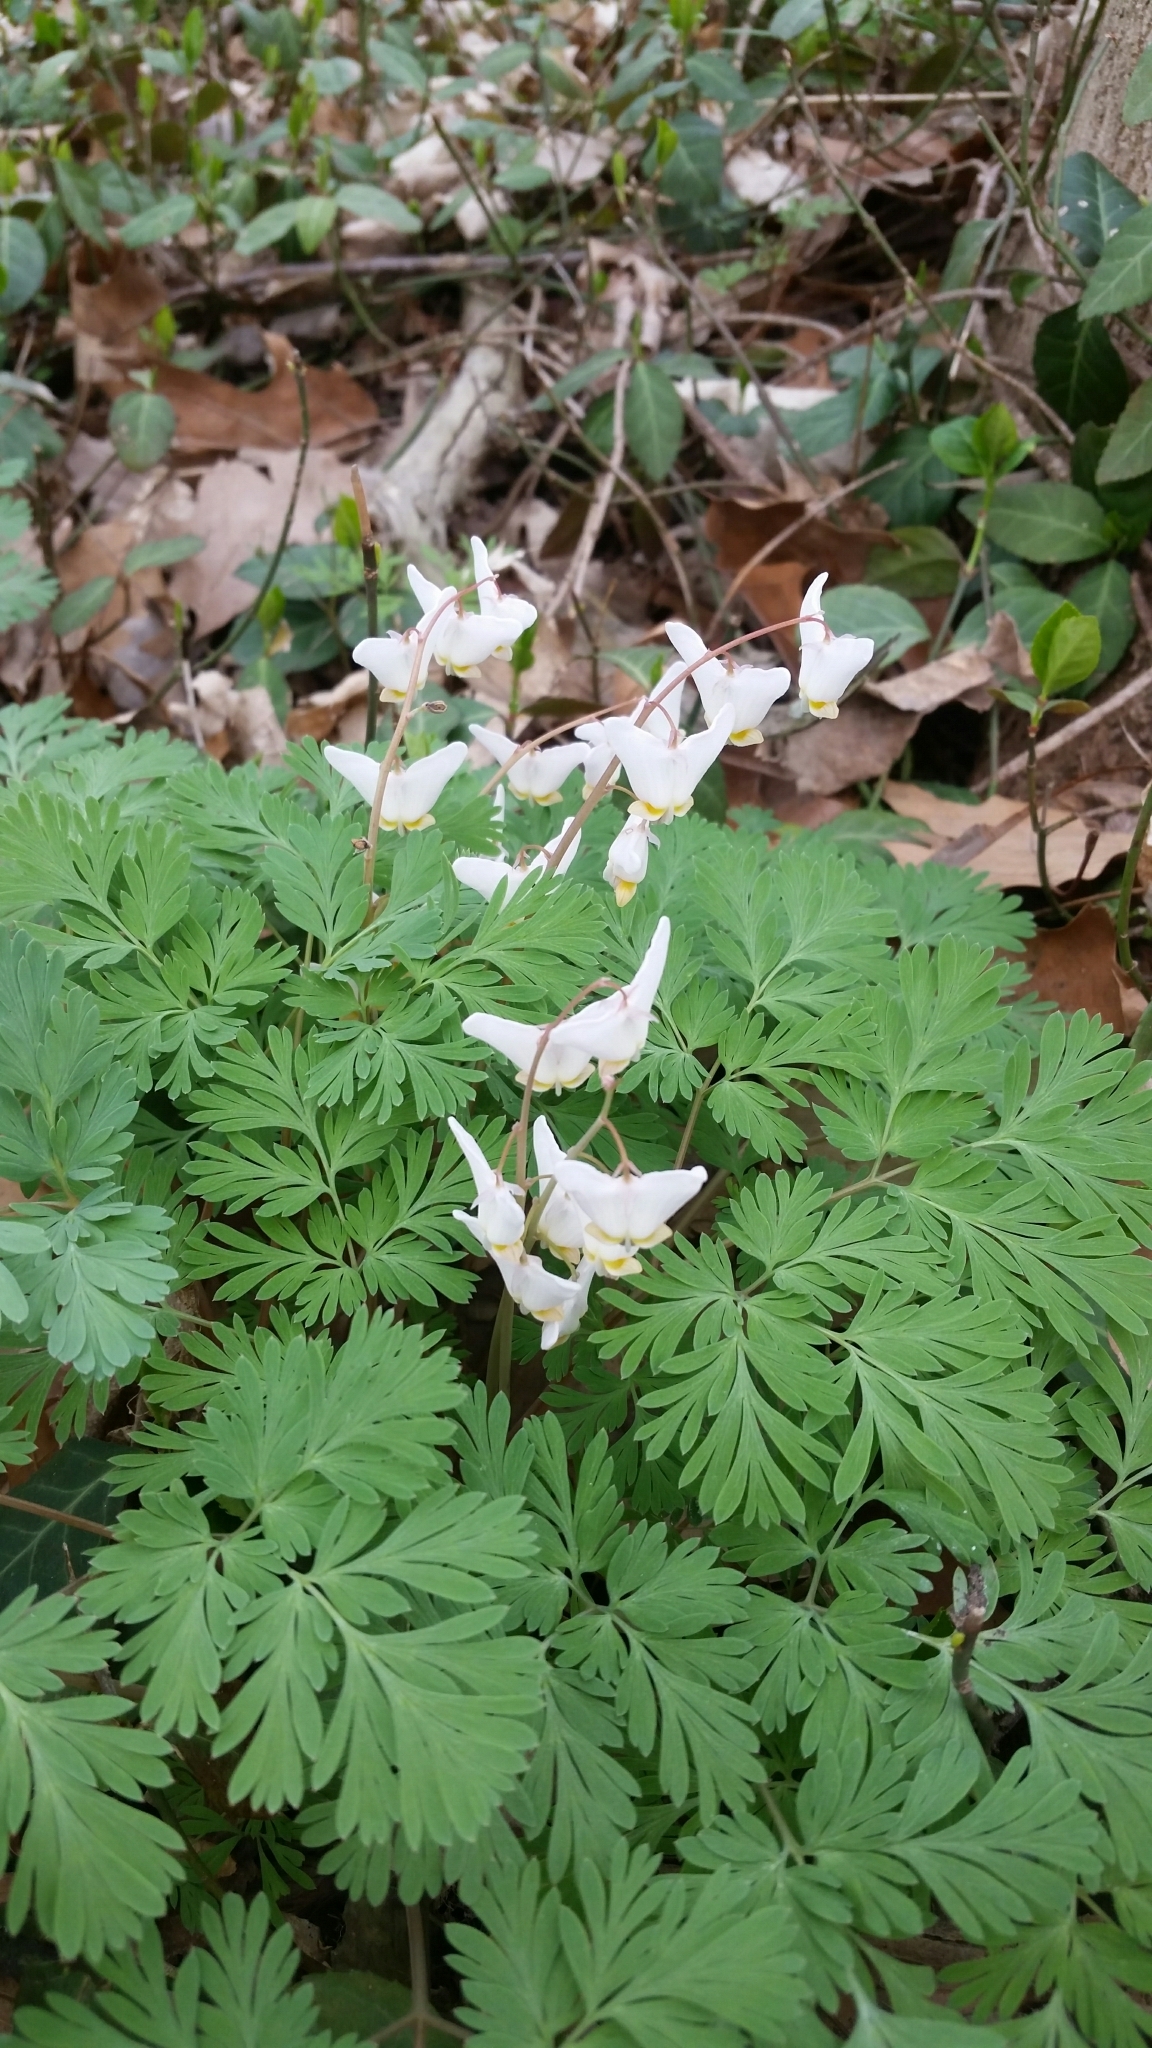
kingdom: Plantae
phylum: Tracheophyta
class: Magnoliopsida
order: Ranunculales
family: Papaveraceae
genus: Dicentra
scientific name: Dicentra cucullaria
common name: Dutchman's breeches
